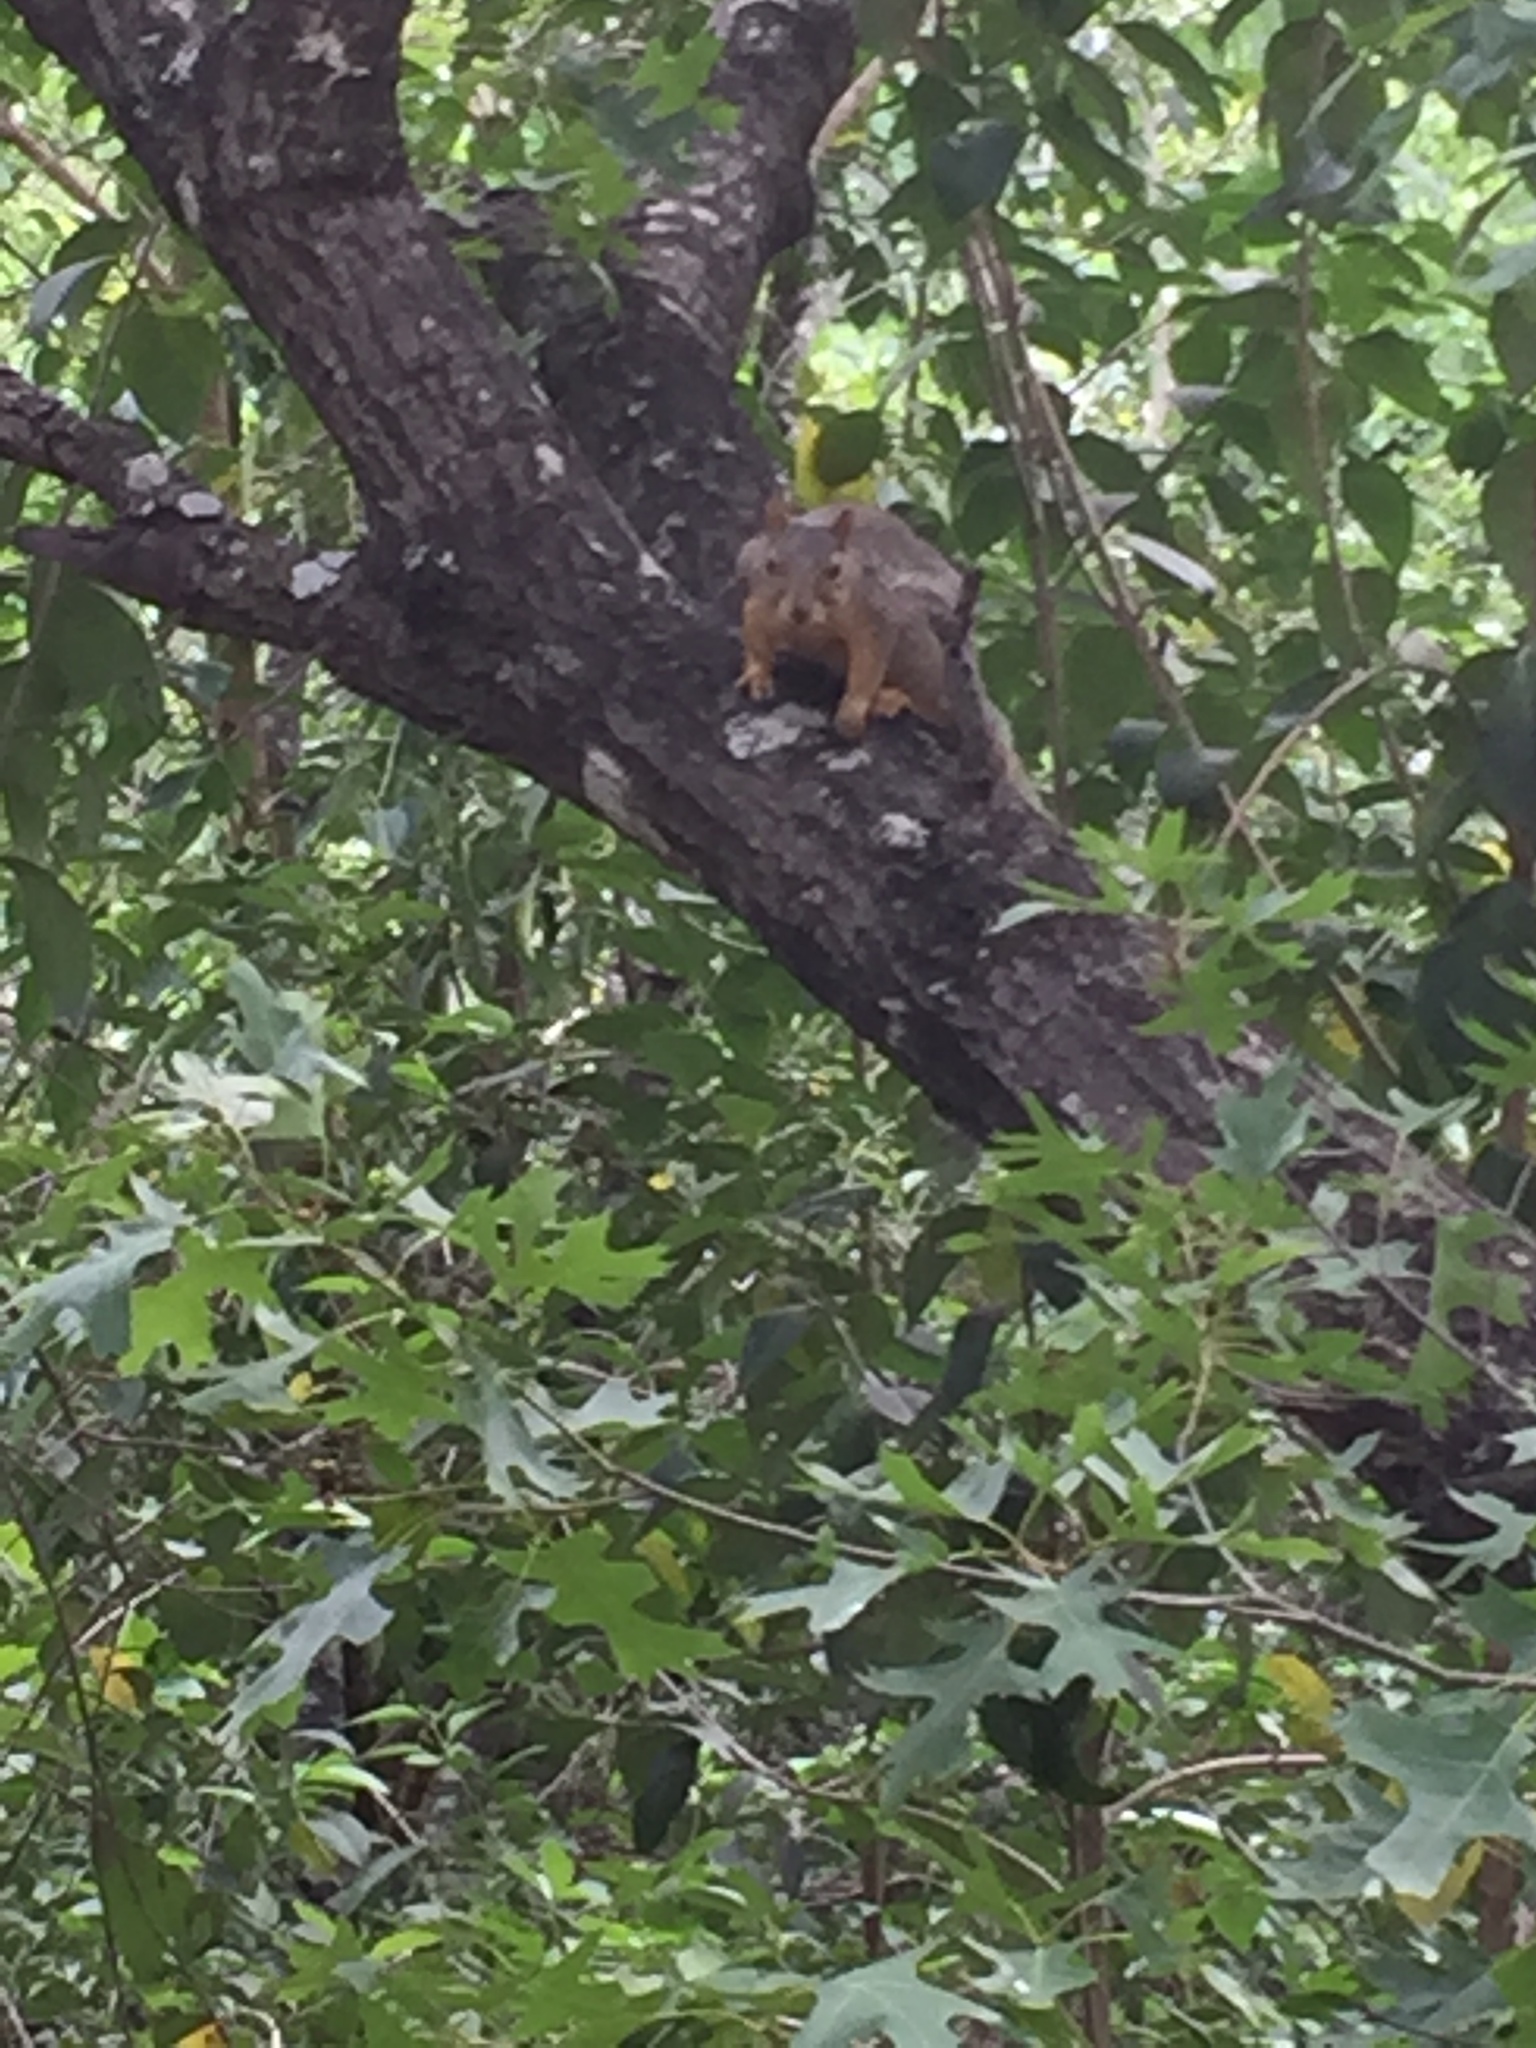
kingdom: Animalia
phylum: Chordata
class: Mammalia
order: Rodentia
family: Sciuridae
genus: Sciurus
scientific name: Sciurus niger
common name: Fox squirrel
